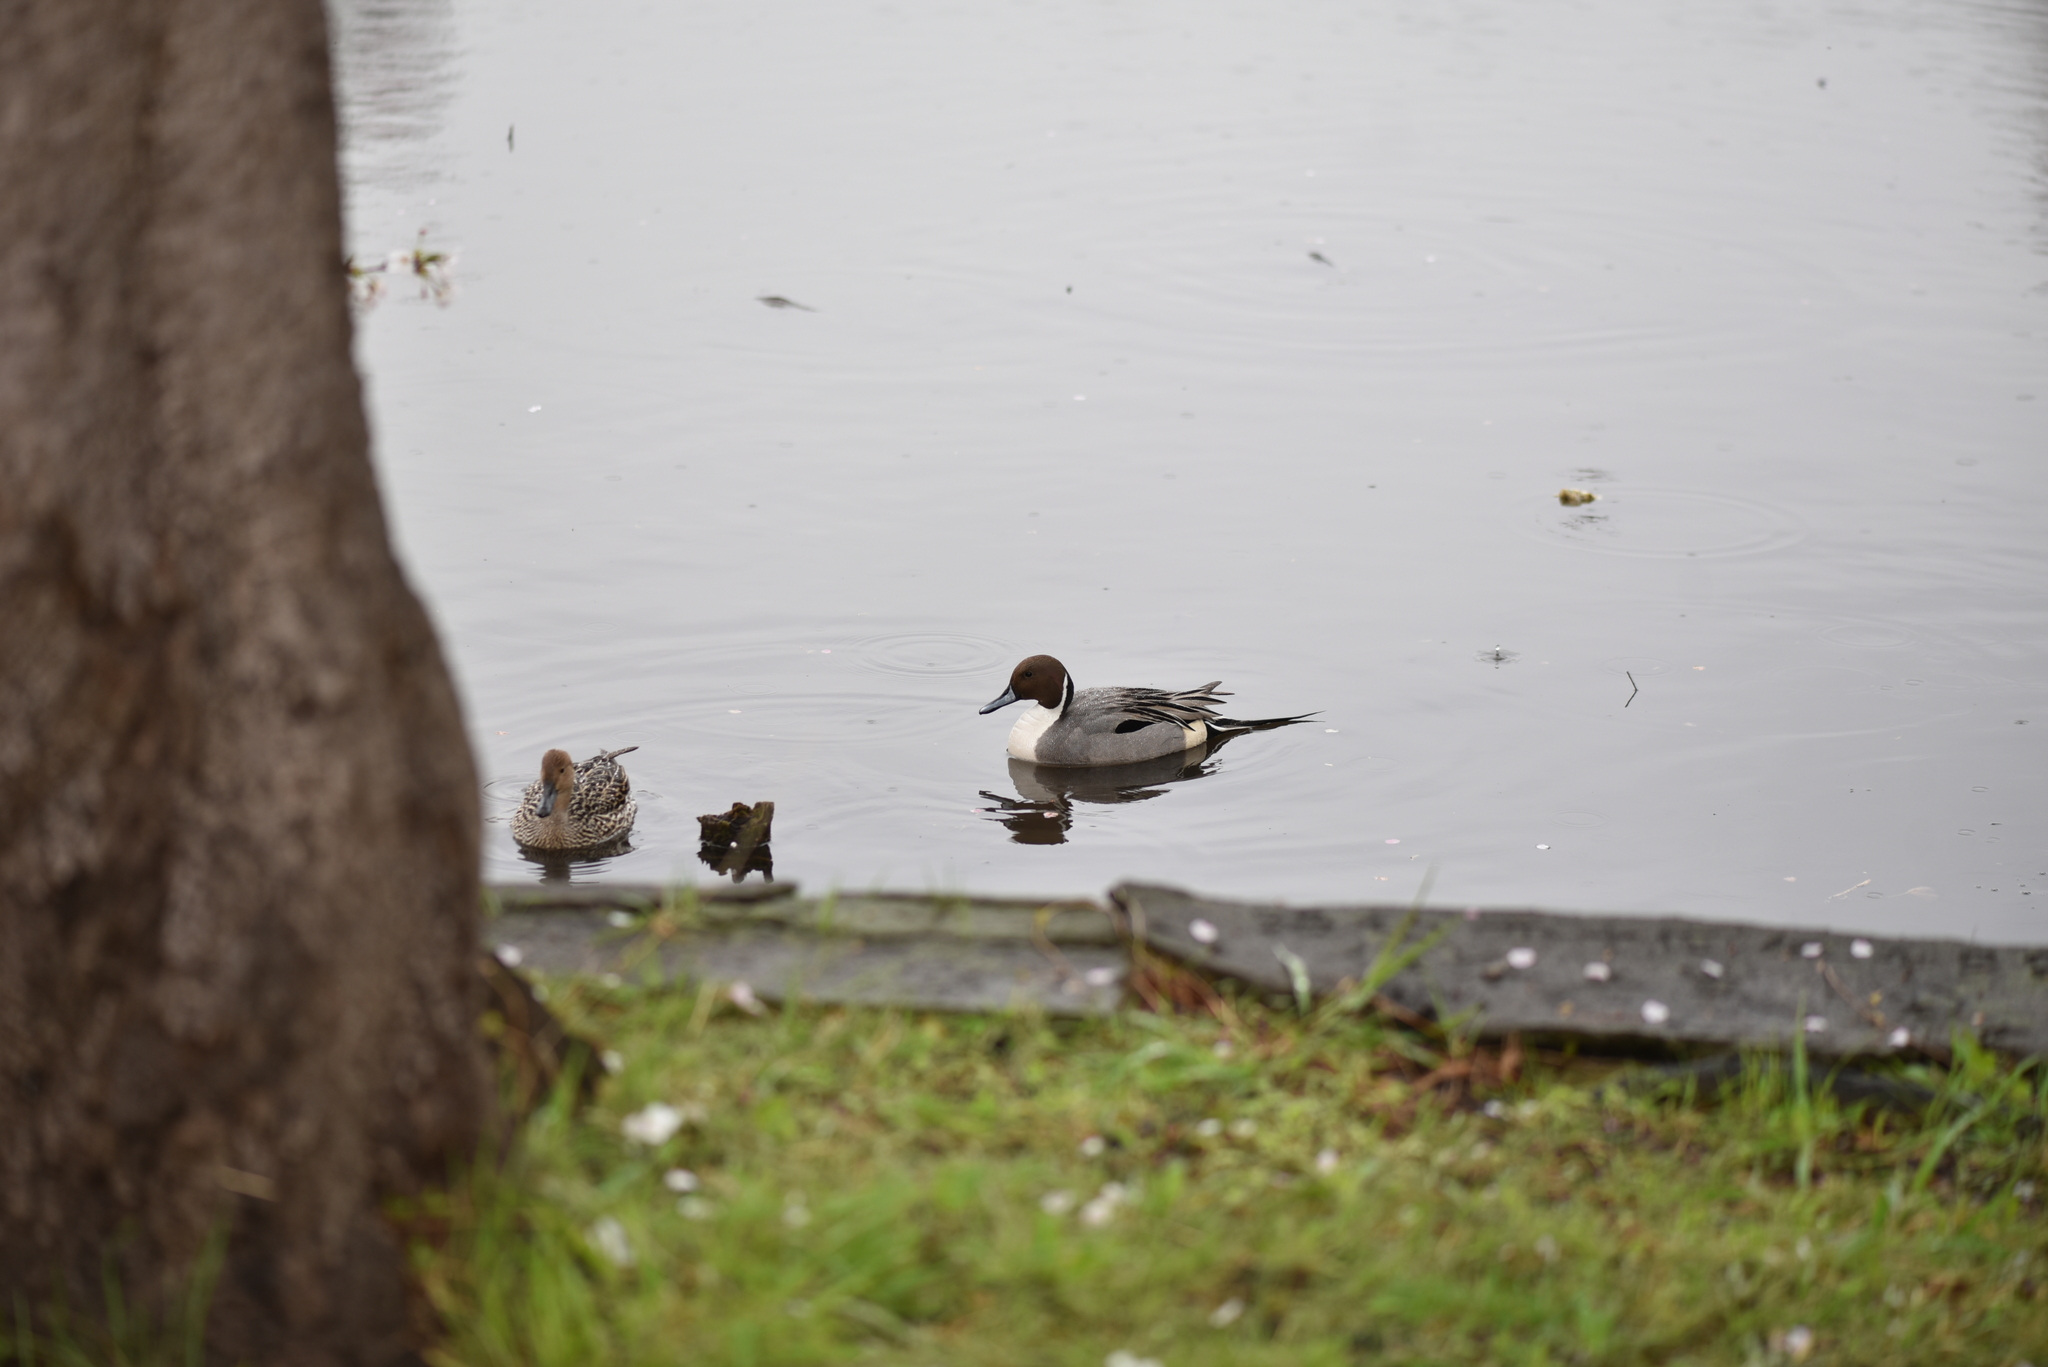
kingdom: Animalia
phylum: Chordata
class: Aves
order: Anseriformes
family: Anatidae
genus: Anas
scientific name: Anas acuta
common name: Northern pintail
